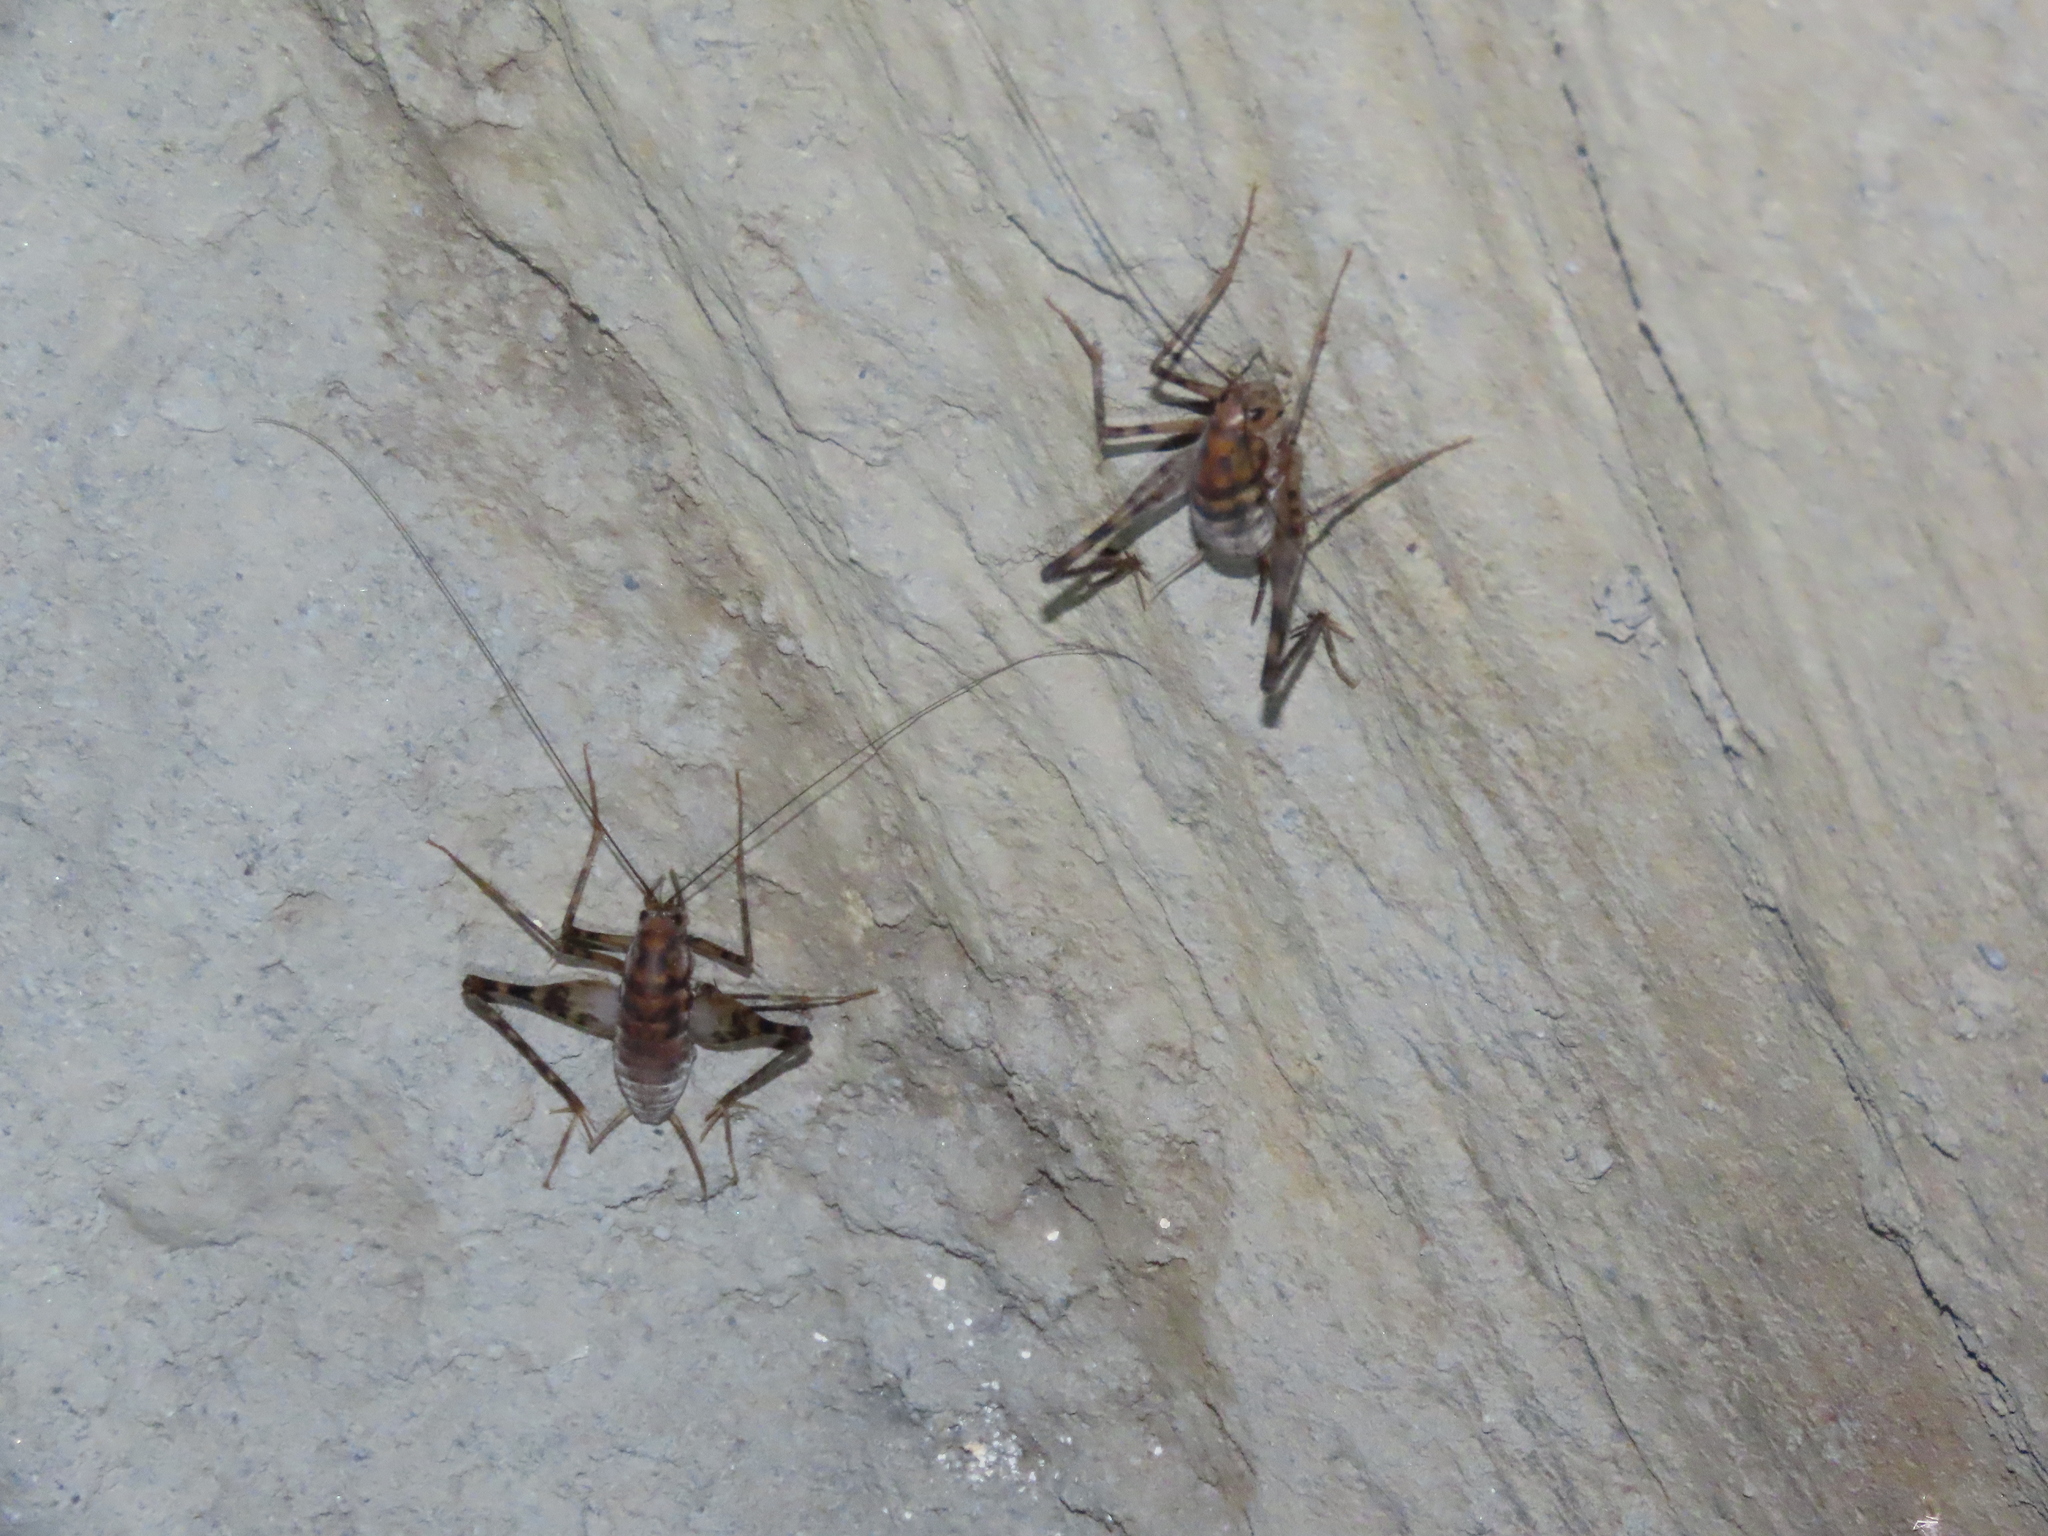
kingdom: Animalia
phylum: Arthropoda
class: Insecta
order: Orthoptera
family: Rhaphidophoridae
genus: Tachycines
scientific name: Tachycines asynamorus
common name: Greenhouse camel cricket
